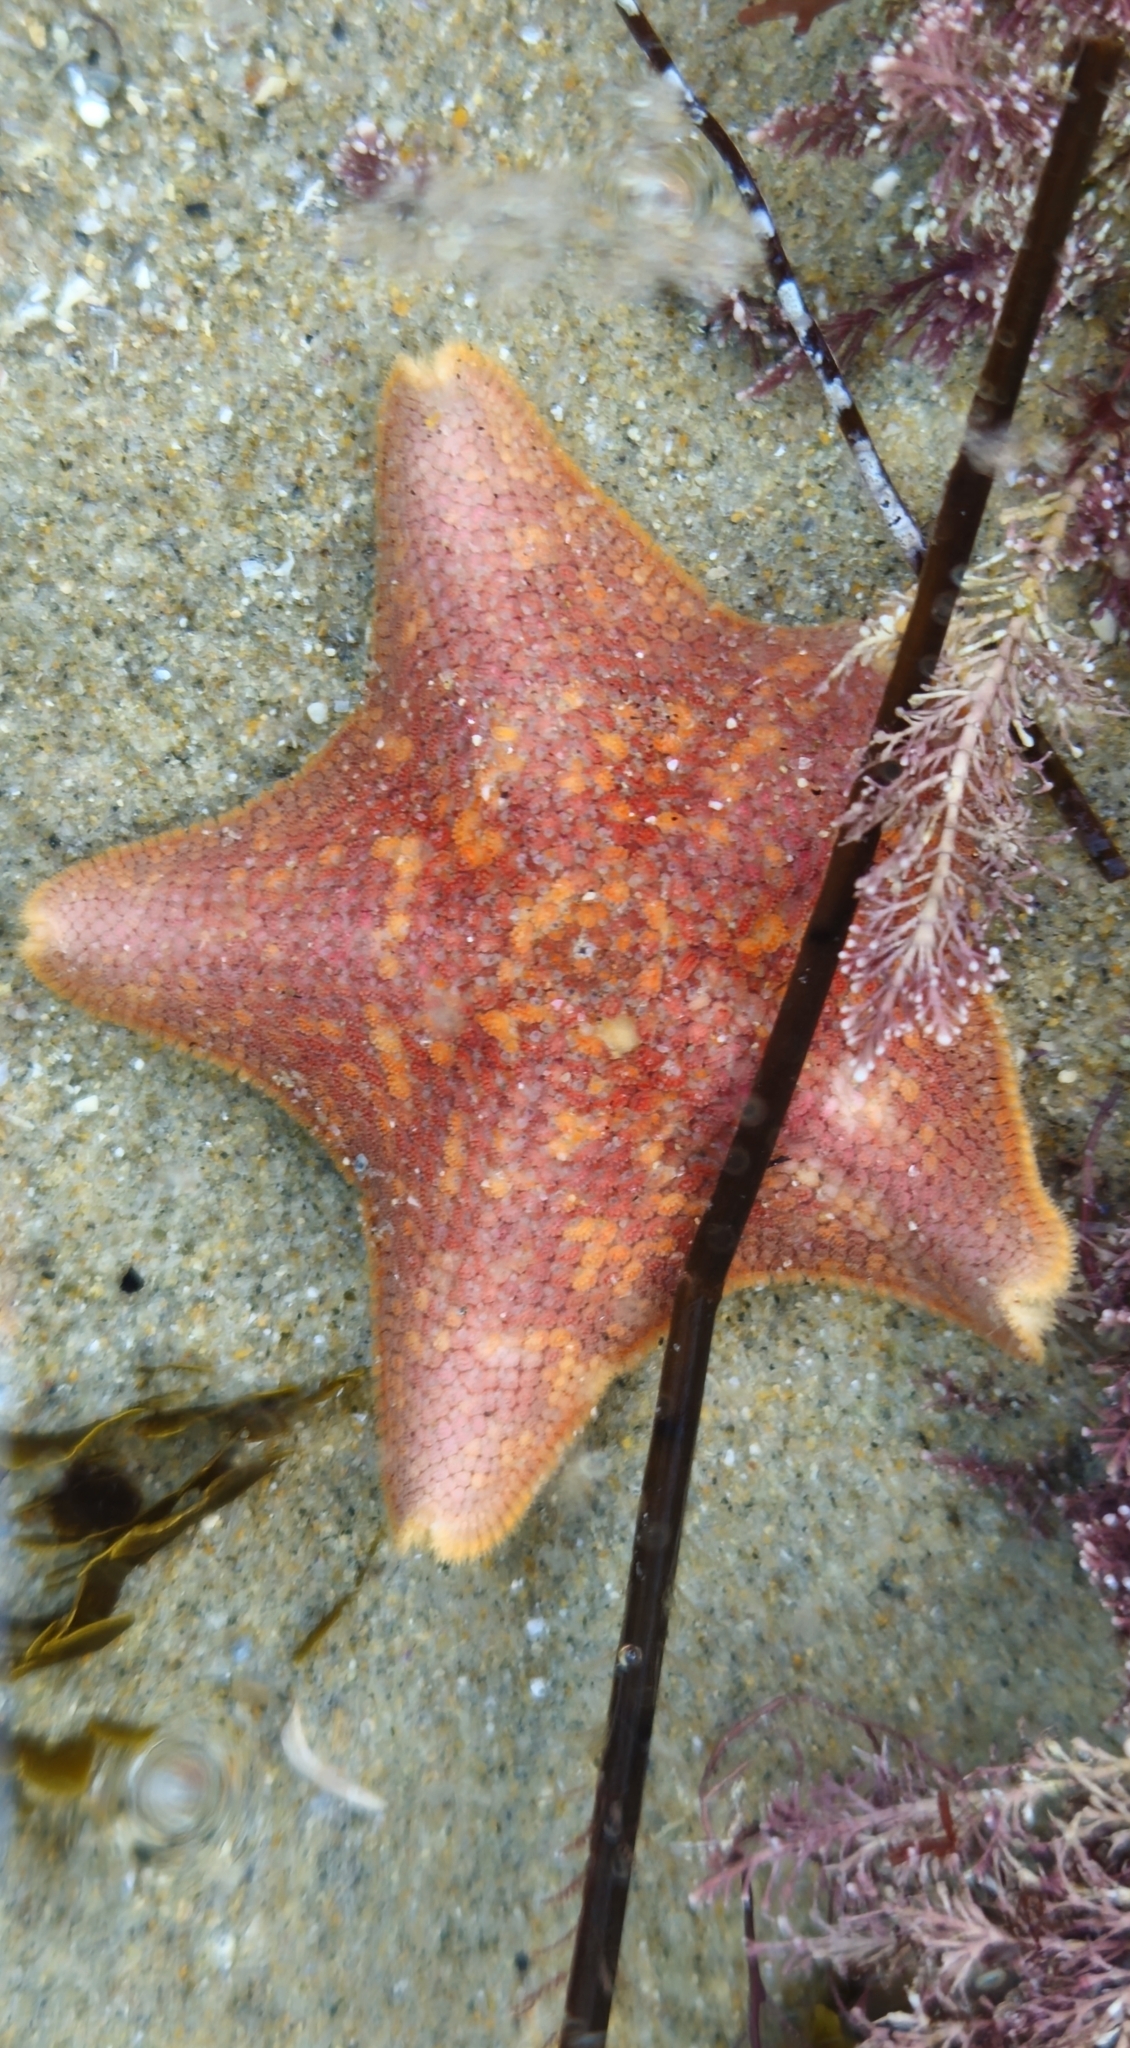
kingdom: Animalia
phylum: Echinodermata
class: Asteroidea
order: Valvatida
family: Asterinidae
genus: Patiria
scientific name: Patiria miniata
